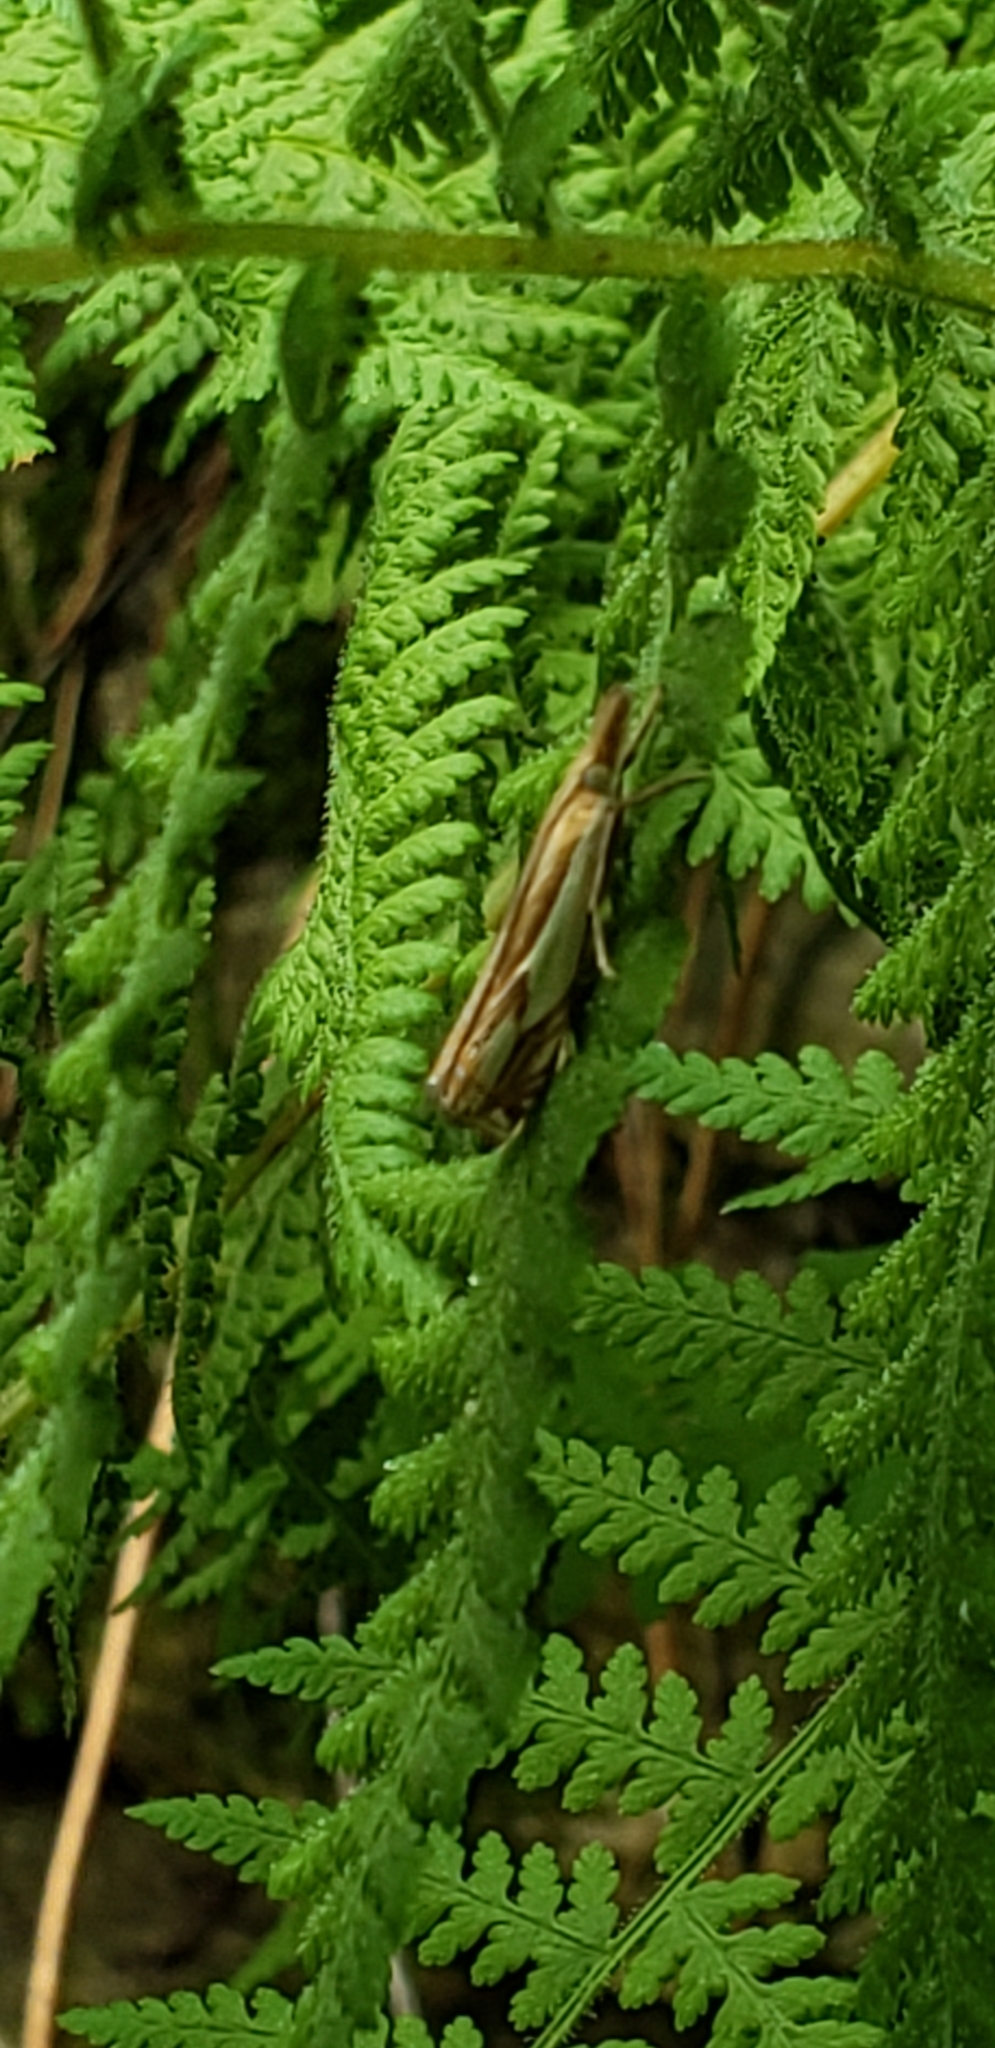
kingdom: Animalia
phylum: Arthropoda
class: Insecta
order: Lepidoptera
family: Crambidae
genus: Crambus
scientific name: Crambus agitatellus
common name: Double-banded grass-veneer
